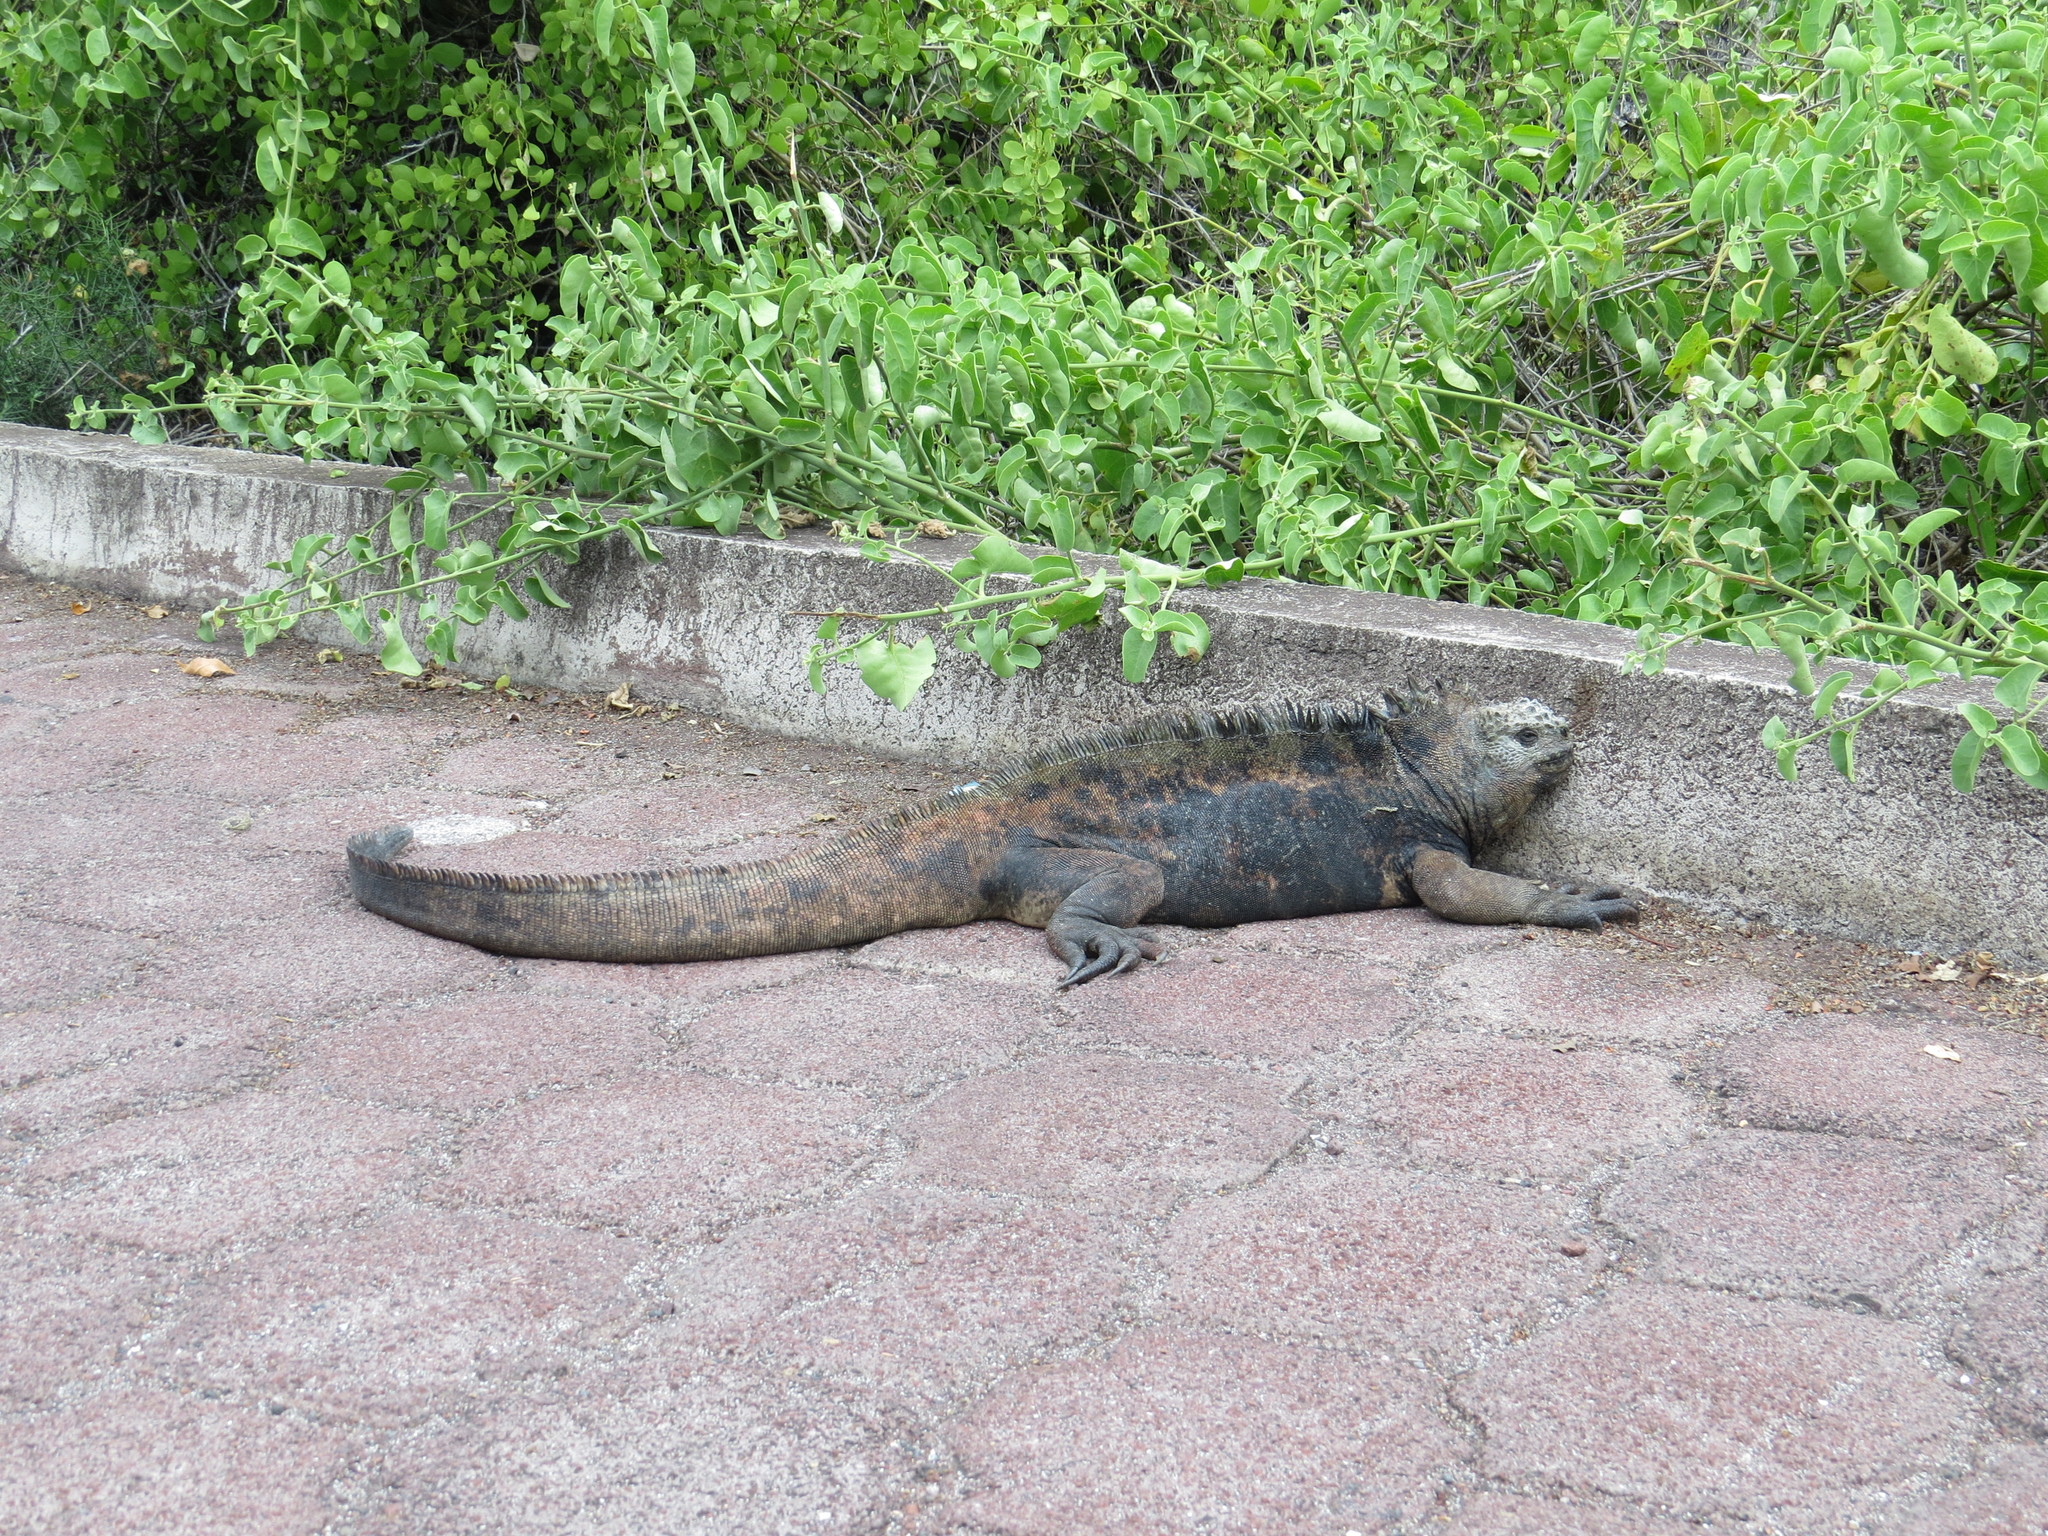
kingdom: Animalia
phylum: Chordata
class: Squamata
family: Iguanidae
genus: Amblyrhynchus
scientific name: Amblyrhynchus cristatus
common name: Marine iguana
